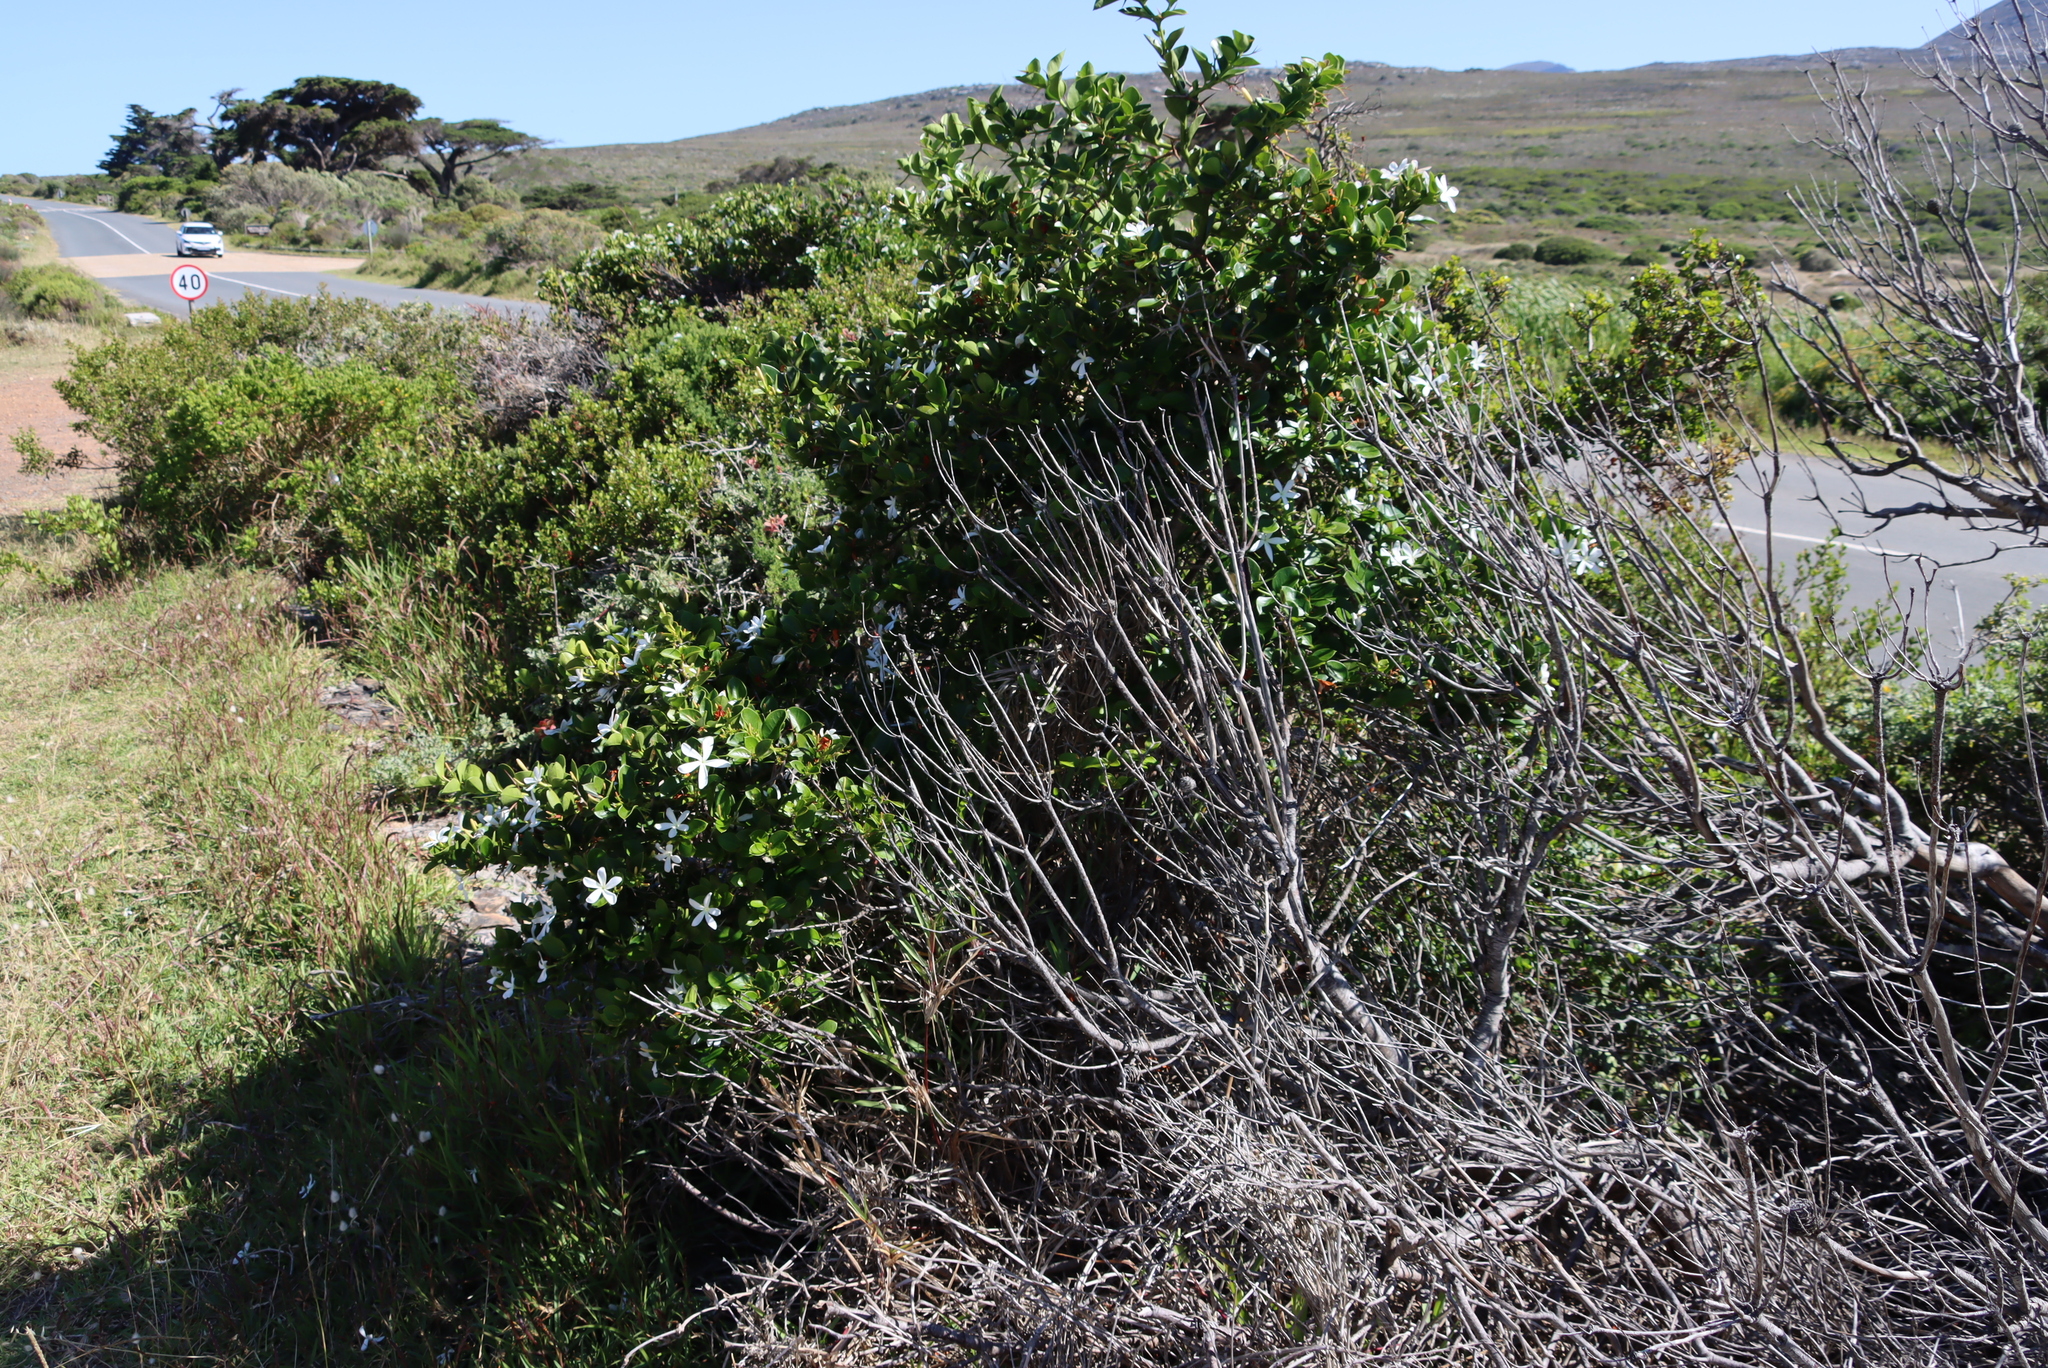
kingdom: Plantae
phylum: Tracheophyta
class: Magnoliopsida
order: Gentianales
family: Apocynaceae
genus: Carissa
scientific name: Carissa macrocarpa
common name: Natal plum
